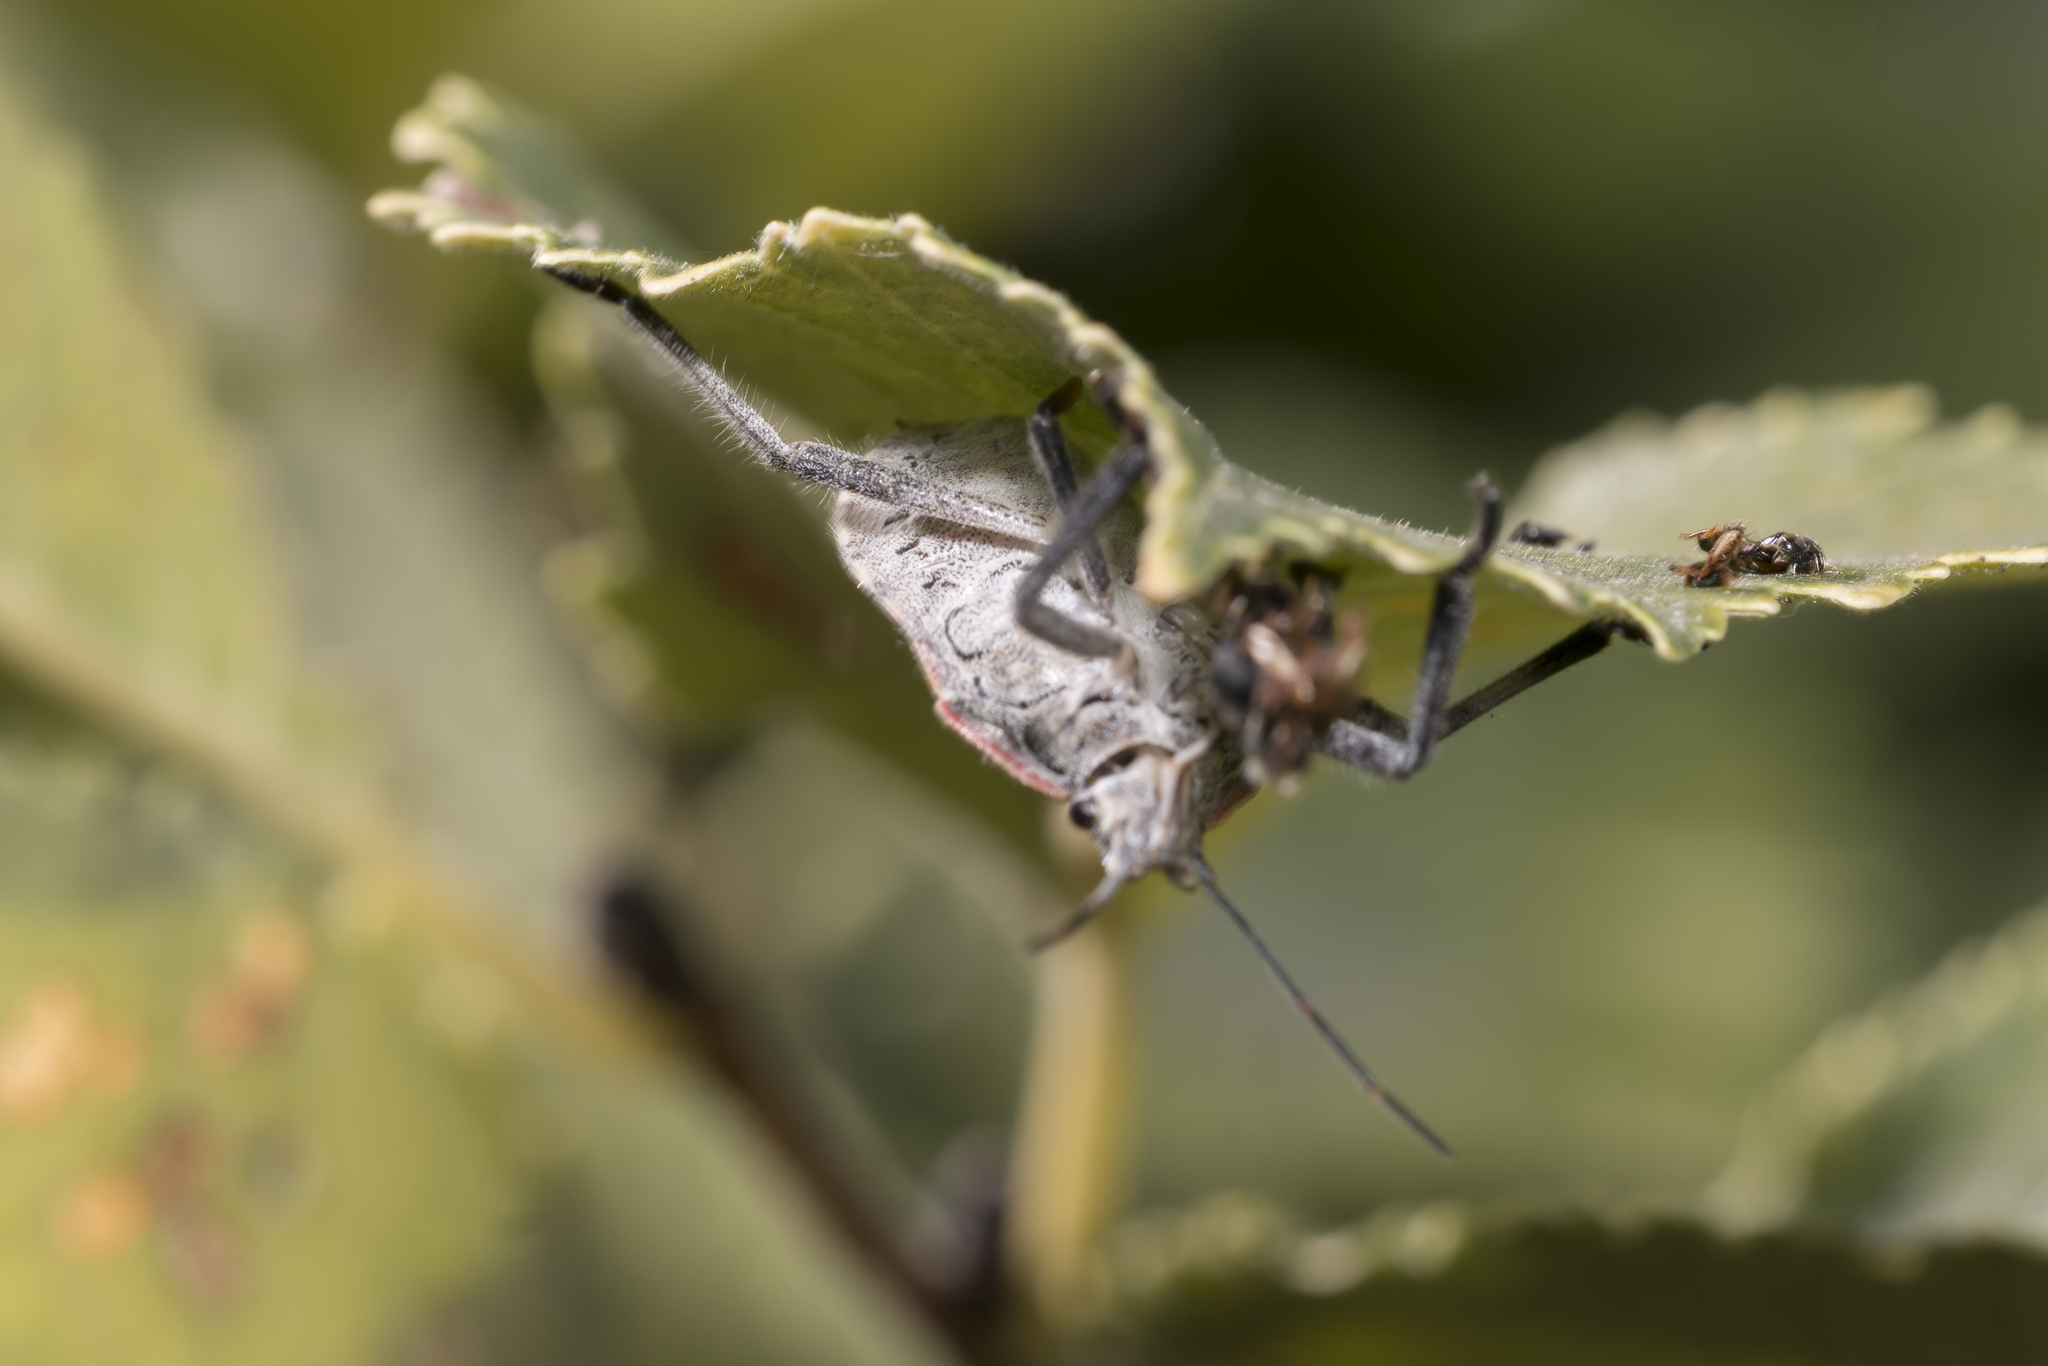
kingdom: Animalia
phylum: Arthropoda
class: Insecta
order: Hemiptera
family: Pentatomidae
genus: Apodiphus
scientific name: Apodiphus amygdali
